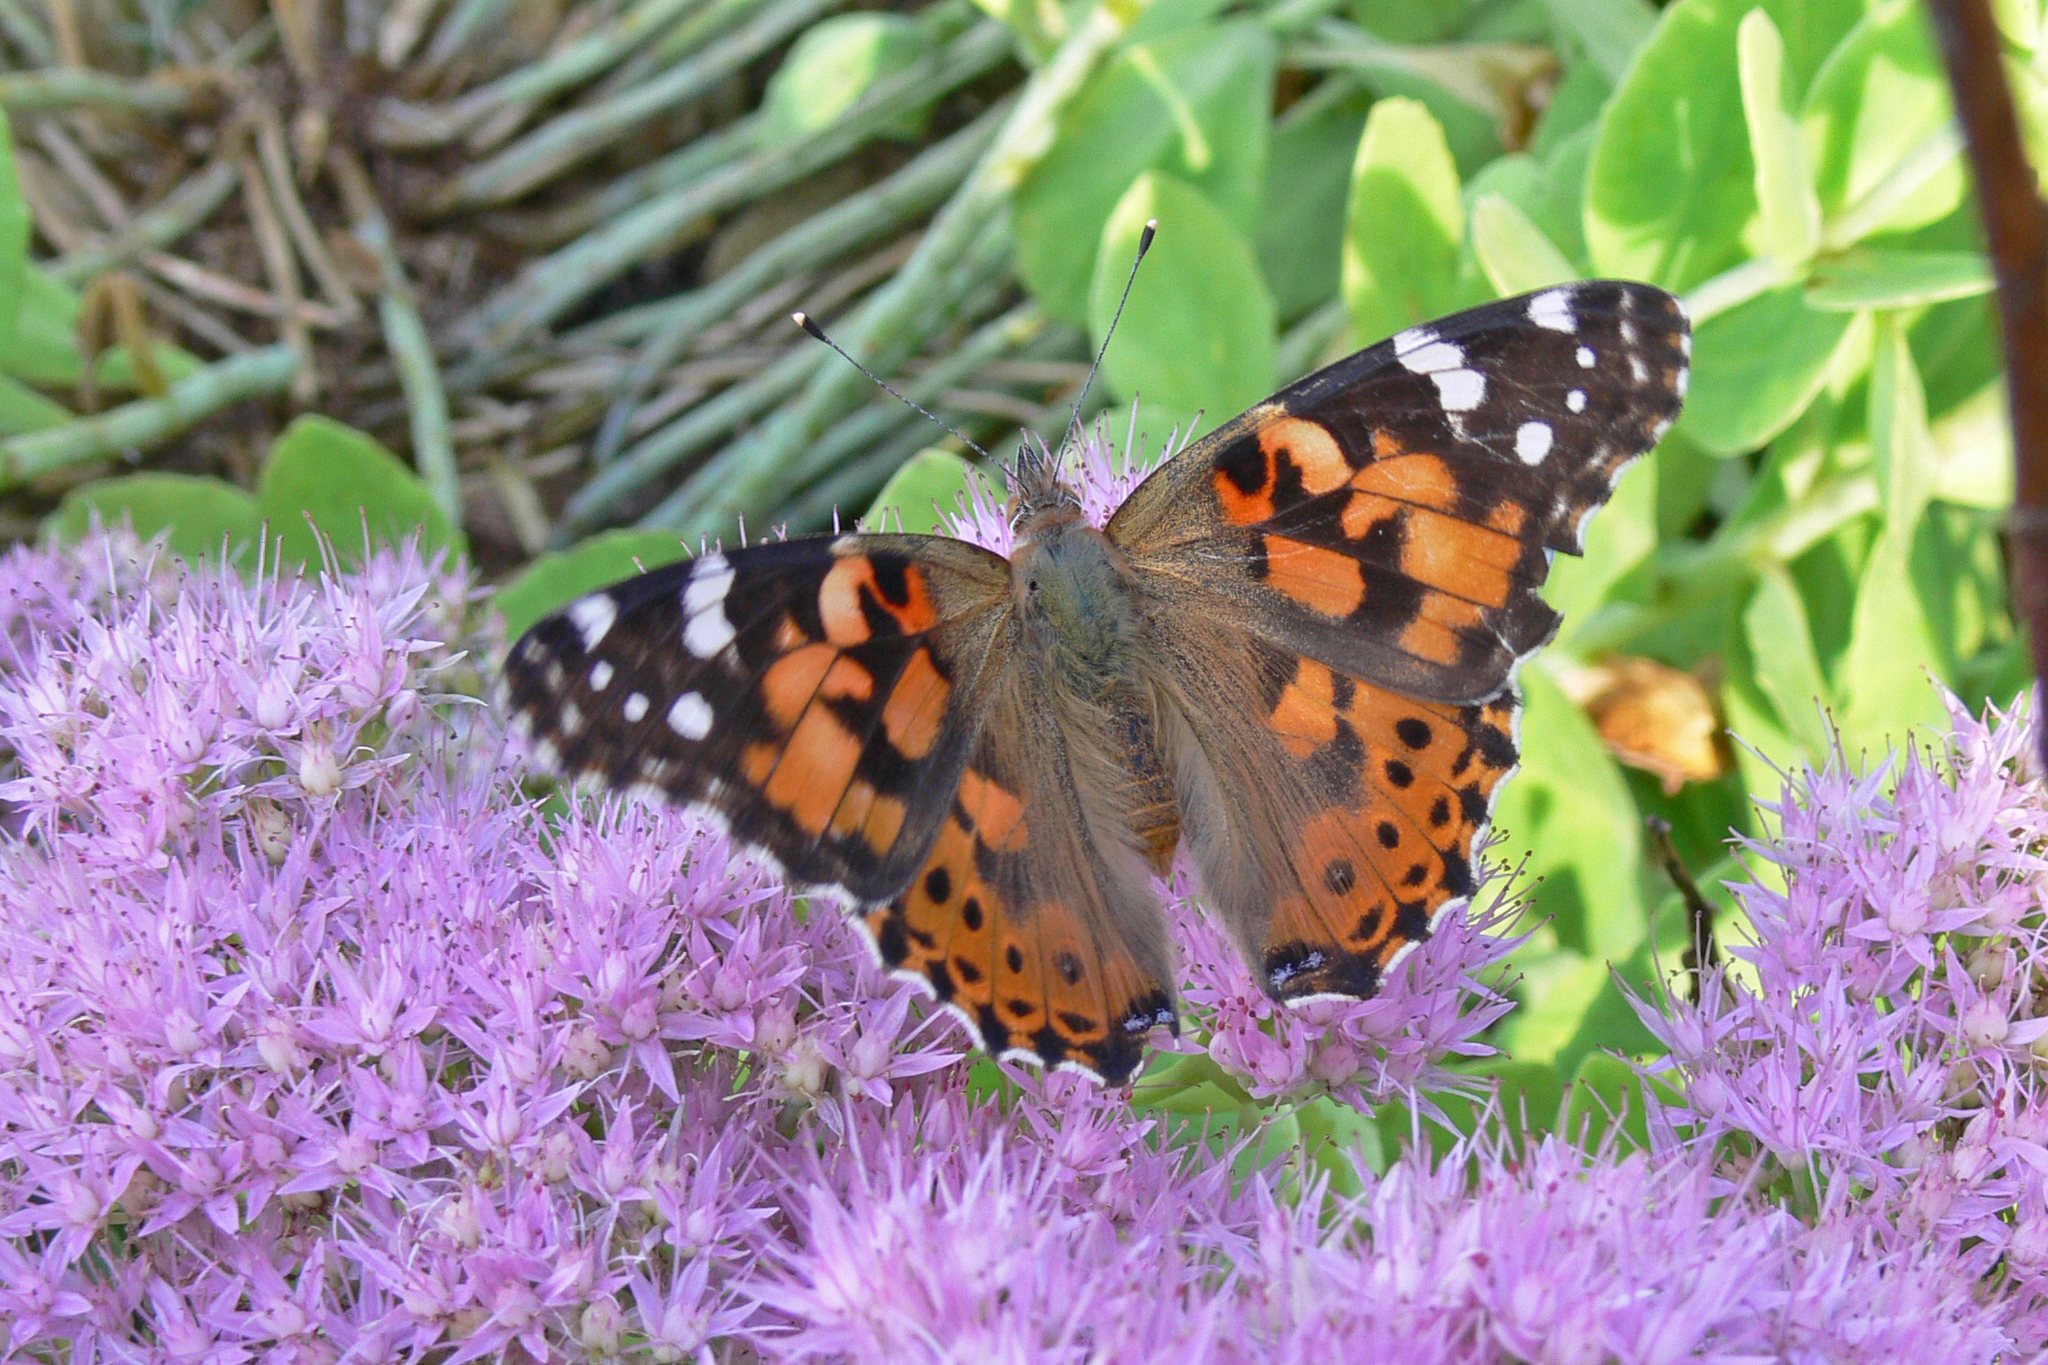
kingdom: Animalia
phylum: Arthropoda
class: Insecta
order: Lepidoptera
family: Nymphalidae
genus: Vanessa
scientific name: Vanessa cardui
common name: Painted lady
